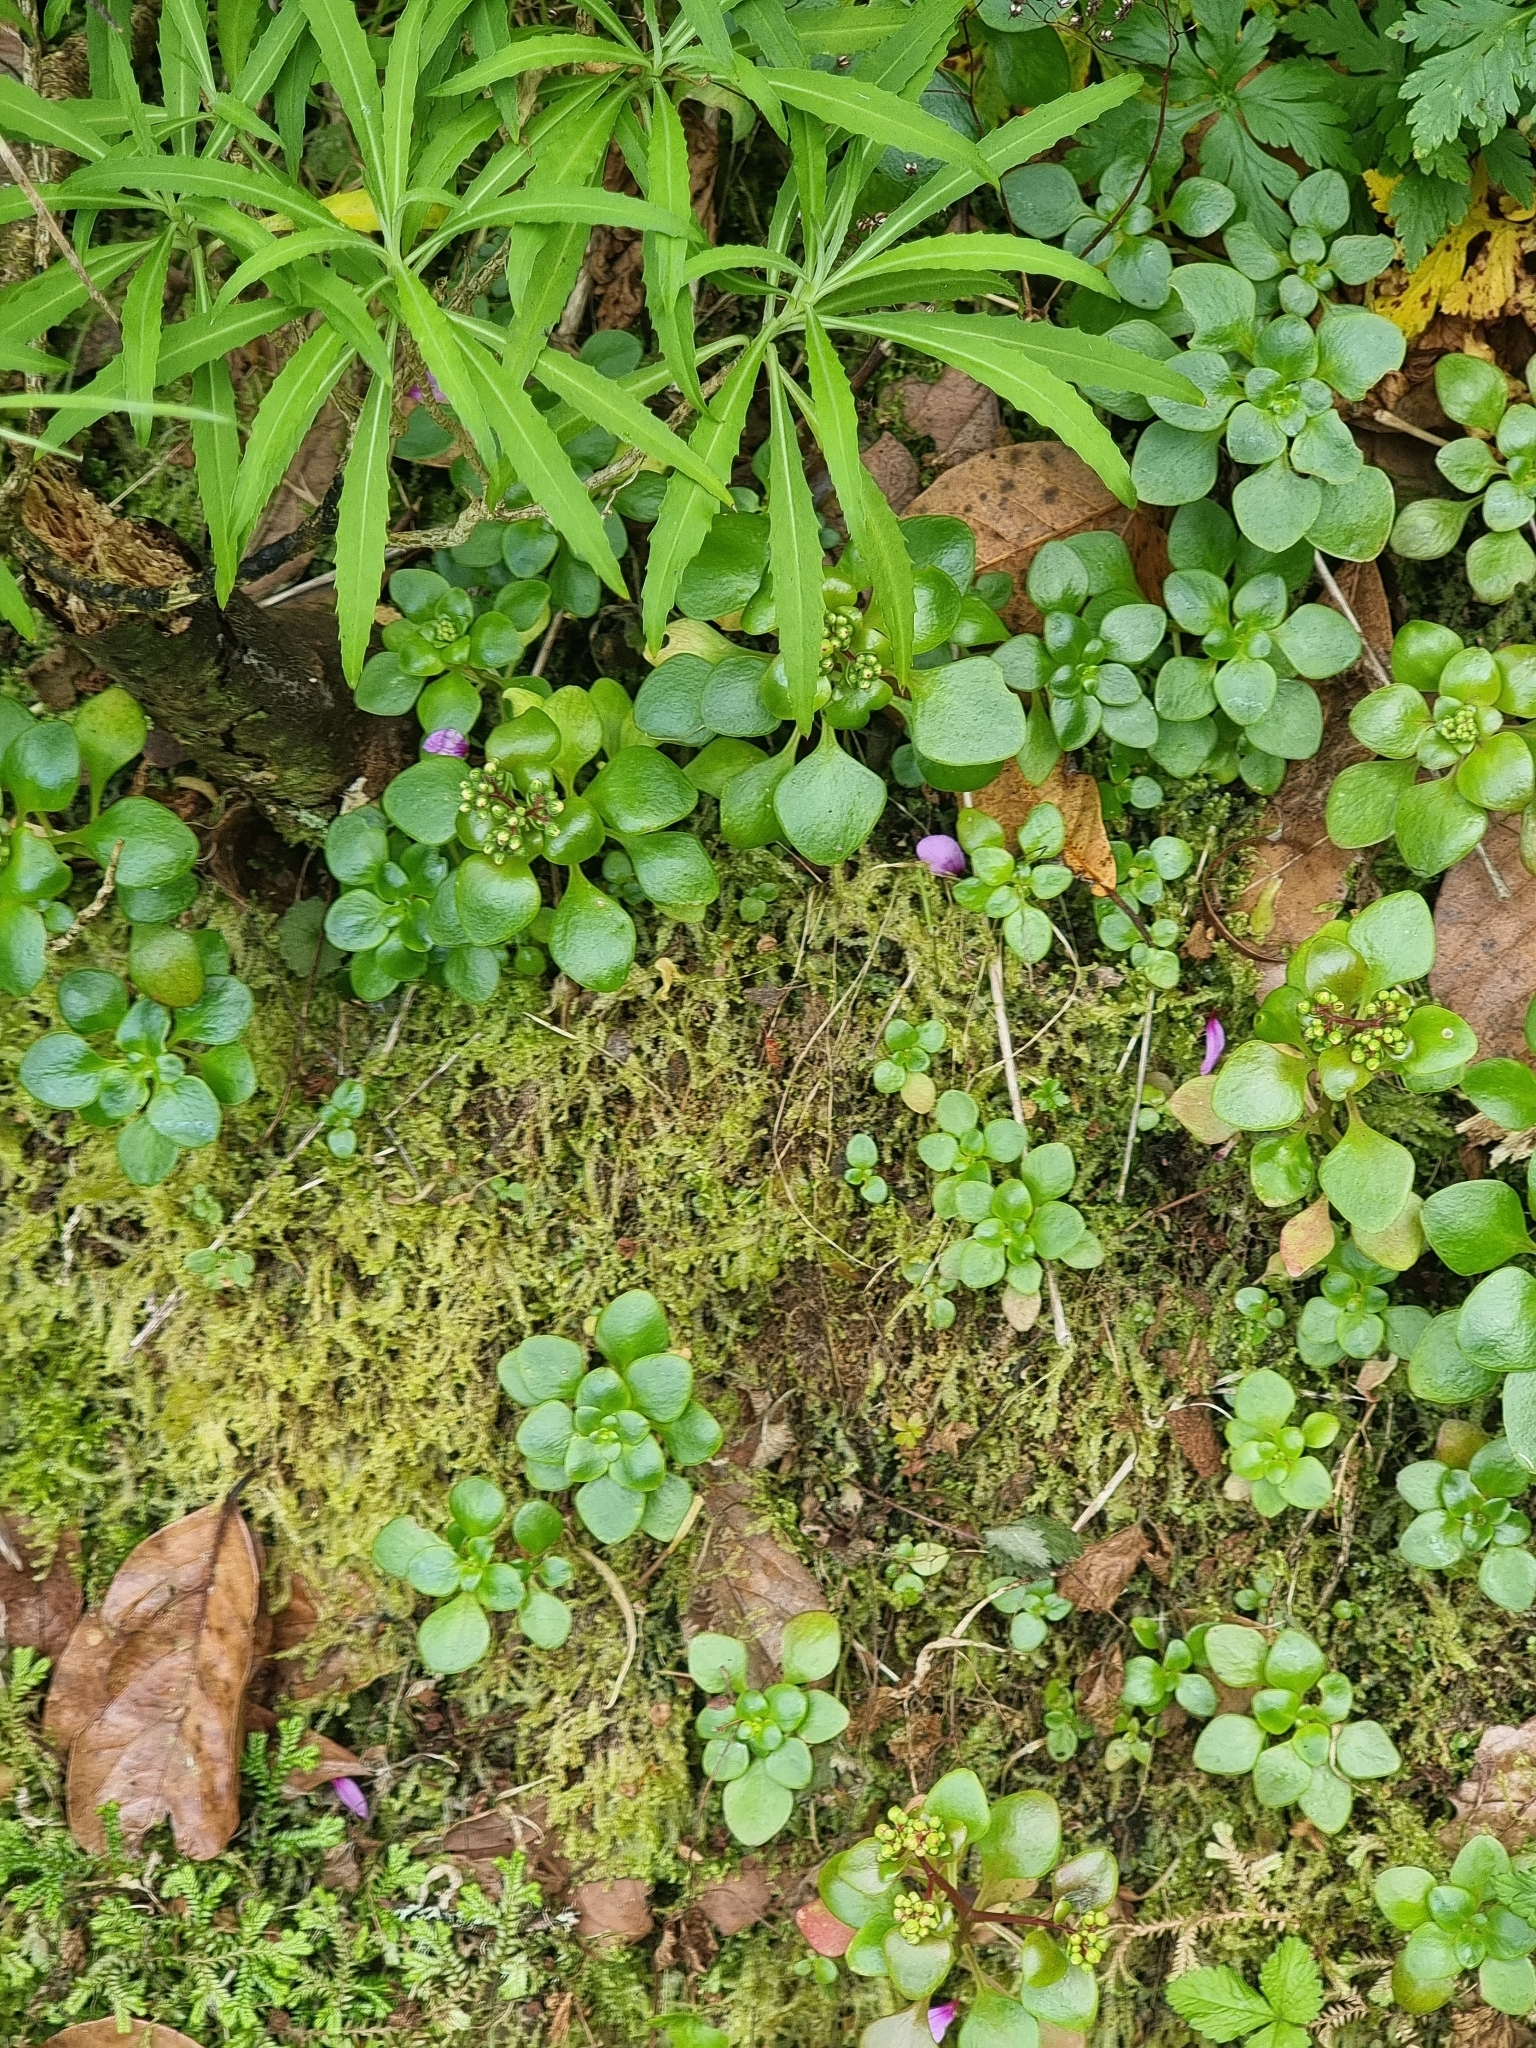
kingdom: Plantae
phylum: Tracheophyta
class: Magnoliopsida
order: Saxifragales
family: Crassulaceae
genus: Aichryson
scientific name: Aichryson divaricatum
